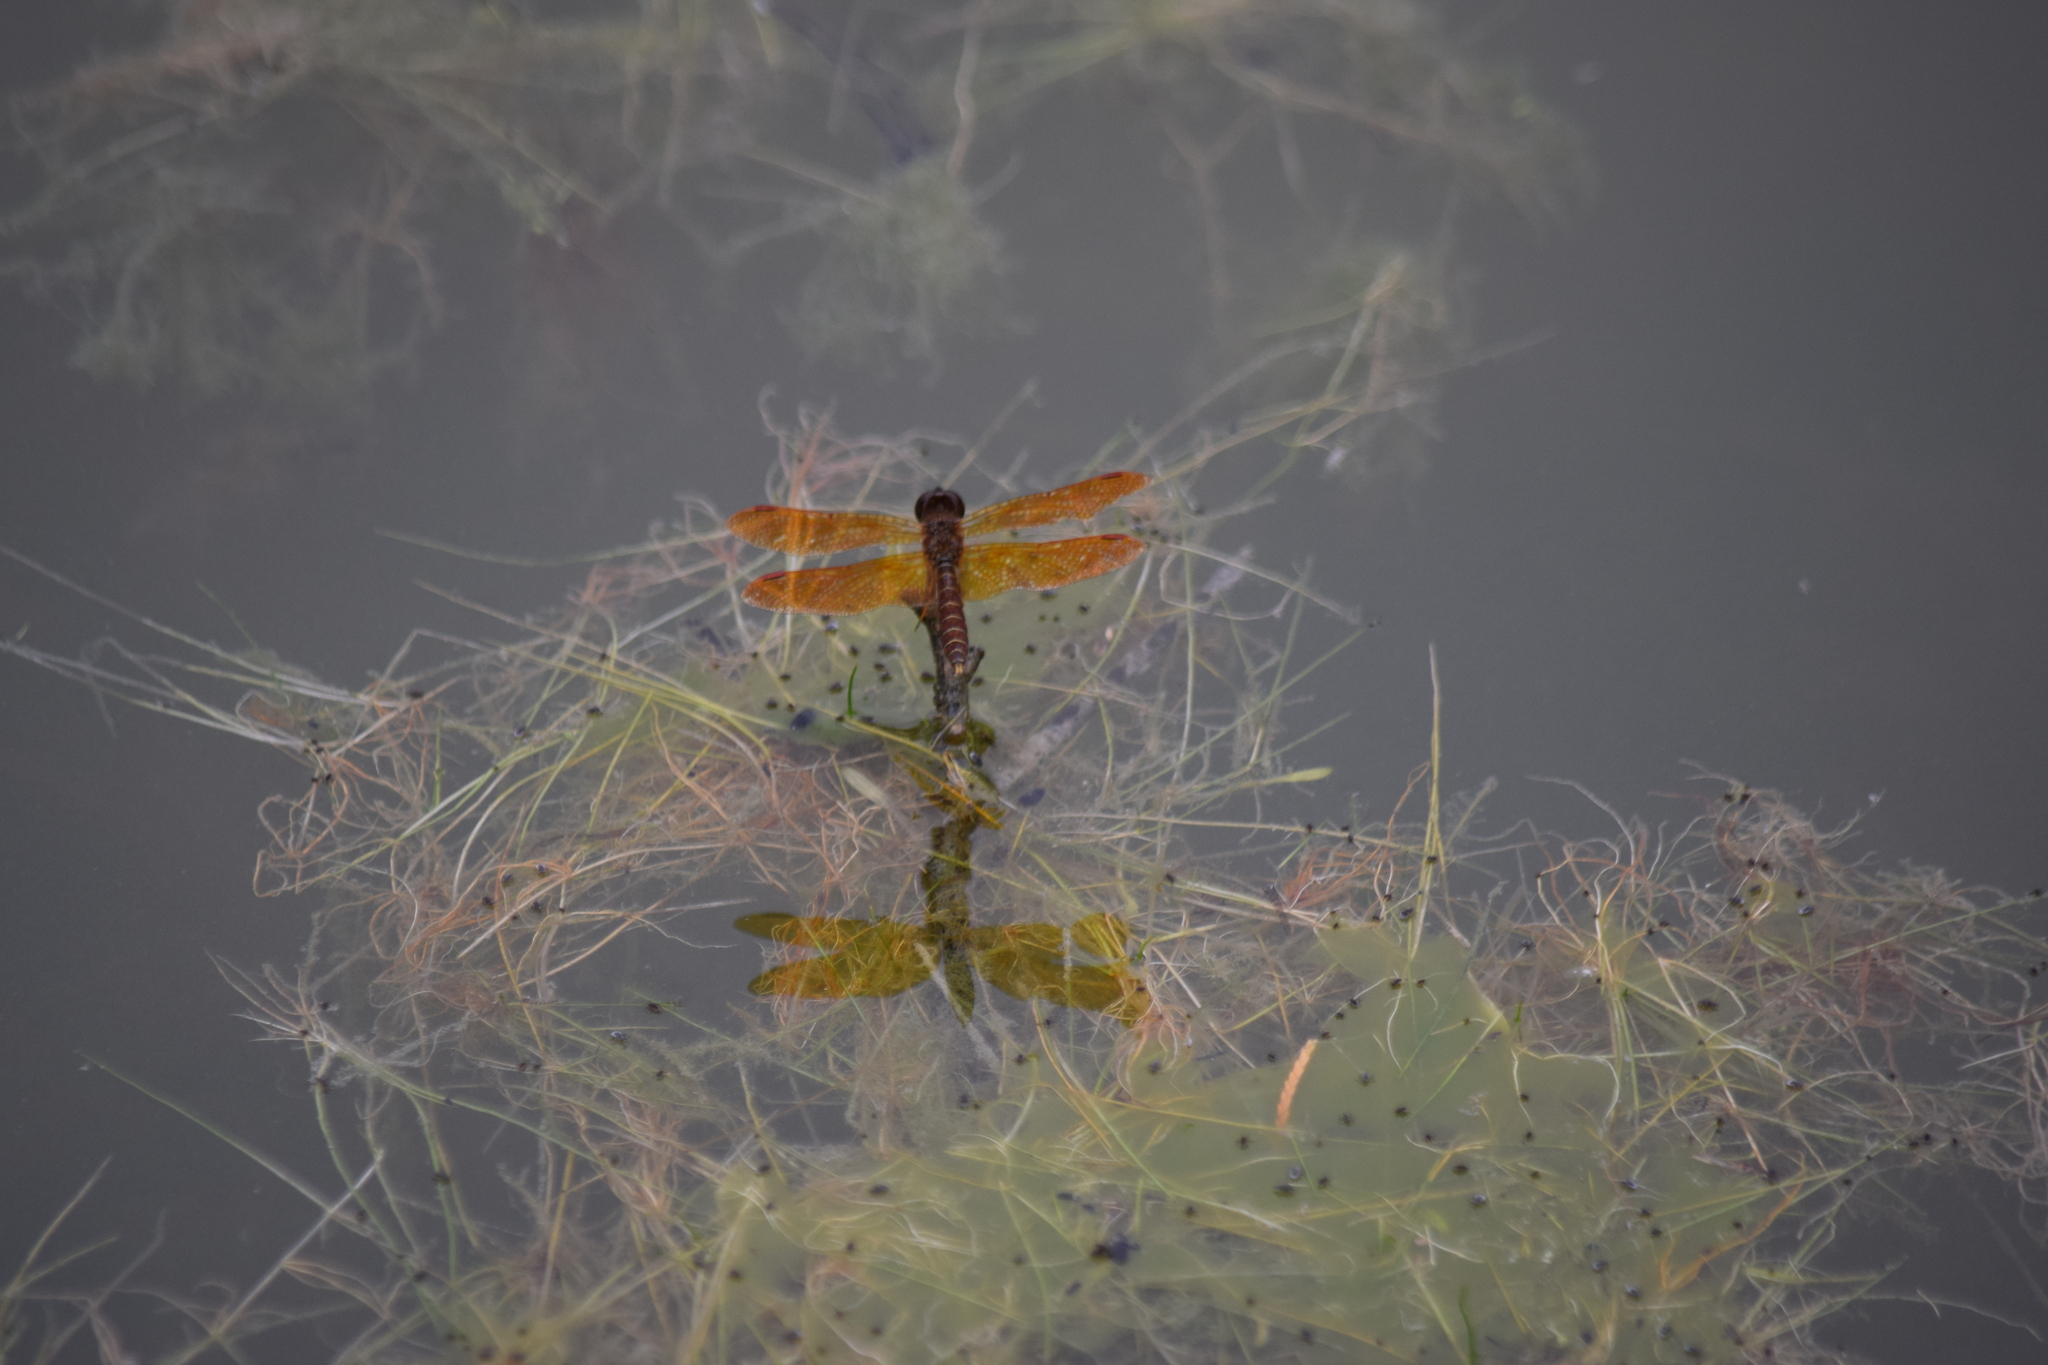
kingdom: Animalia
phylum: Arthropoda
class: Insecta
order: Odonata
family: Libellulidae
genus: Perithemis
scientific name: Perithemis tenera
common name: Eastern amberwing
